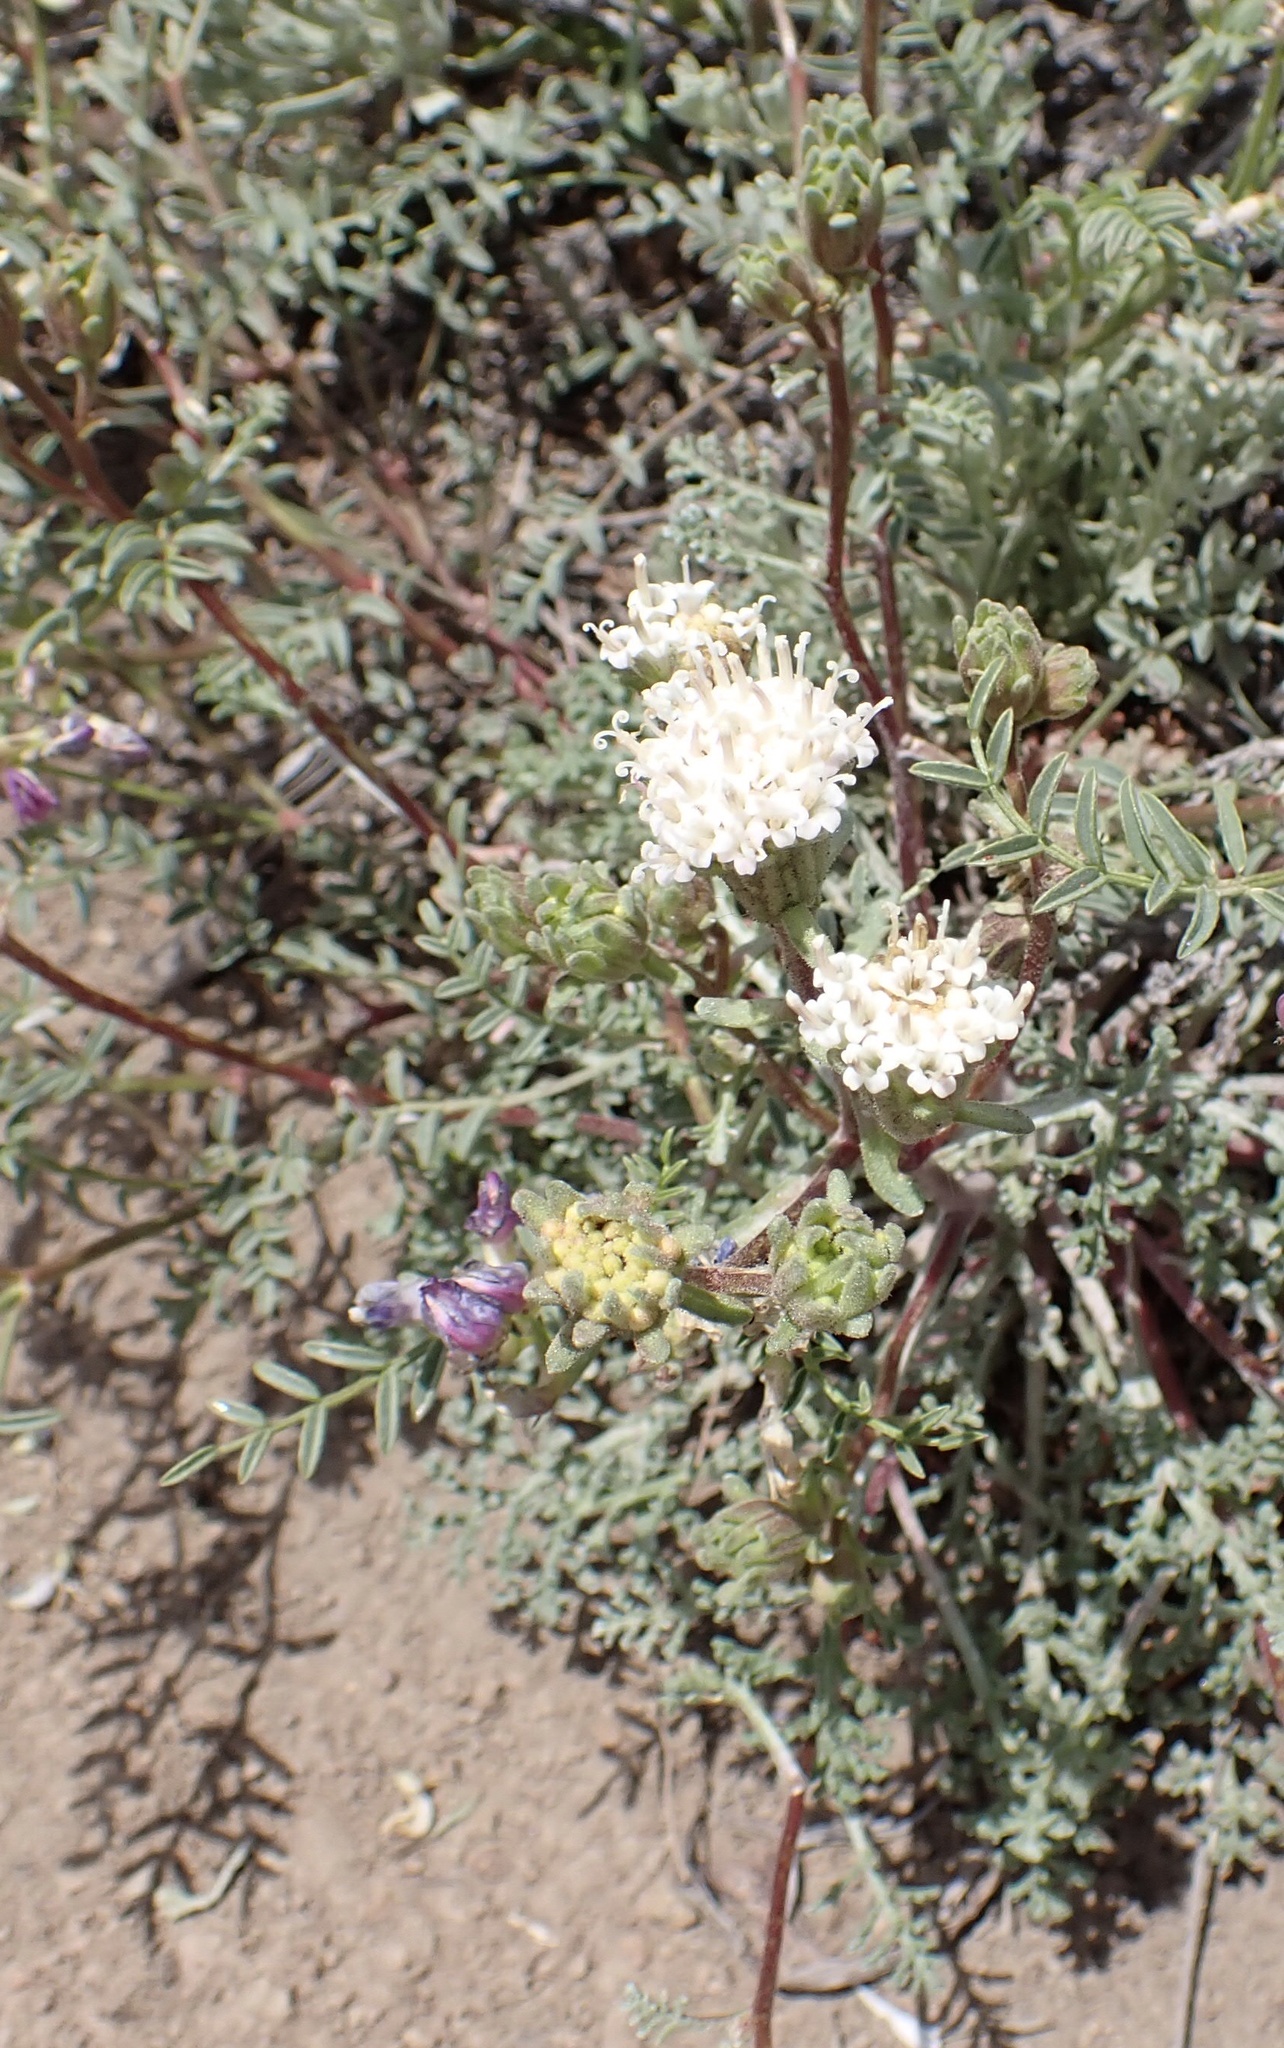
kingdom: Plantae
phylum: Tracheophyta
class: Magnoliopsida
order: Asterales
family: Asteraceae
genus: Chaenactis
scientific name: Chaenactis douglasii
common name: Hoary pincushion
